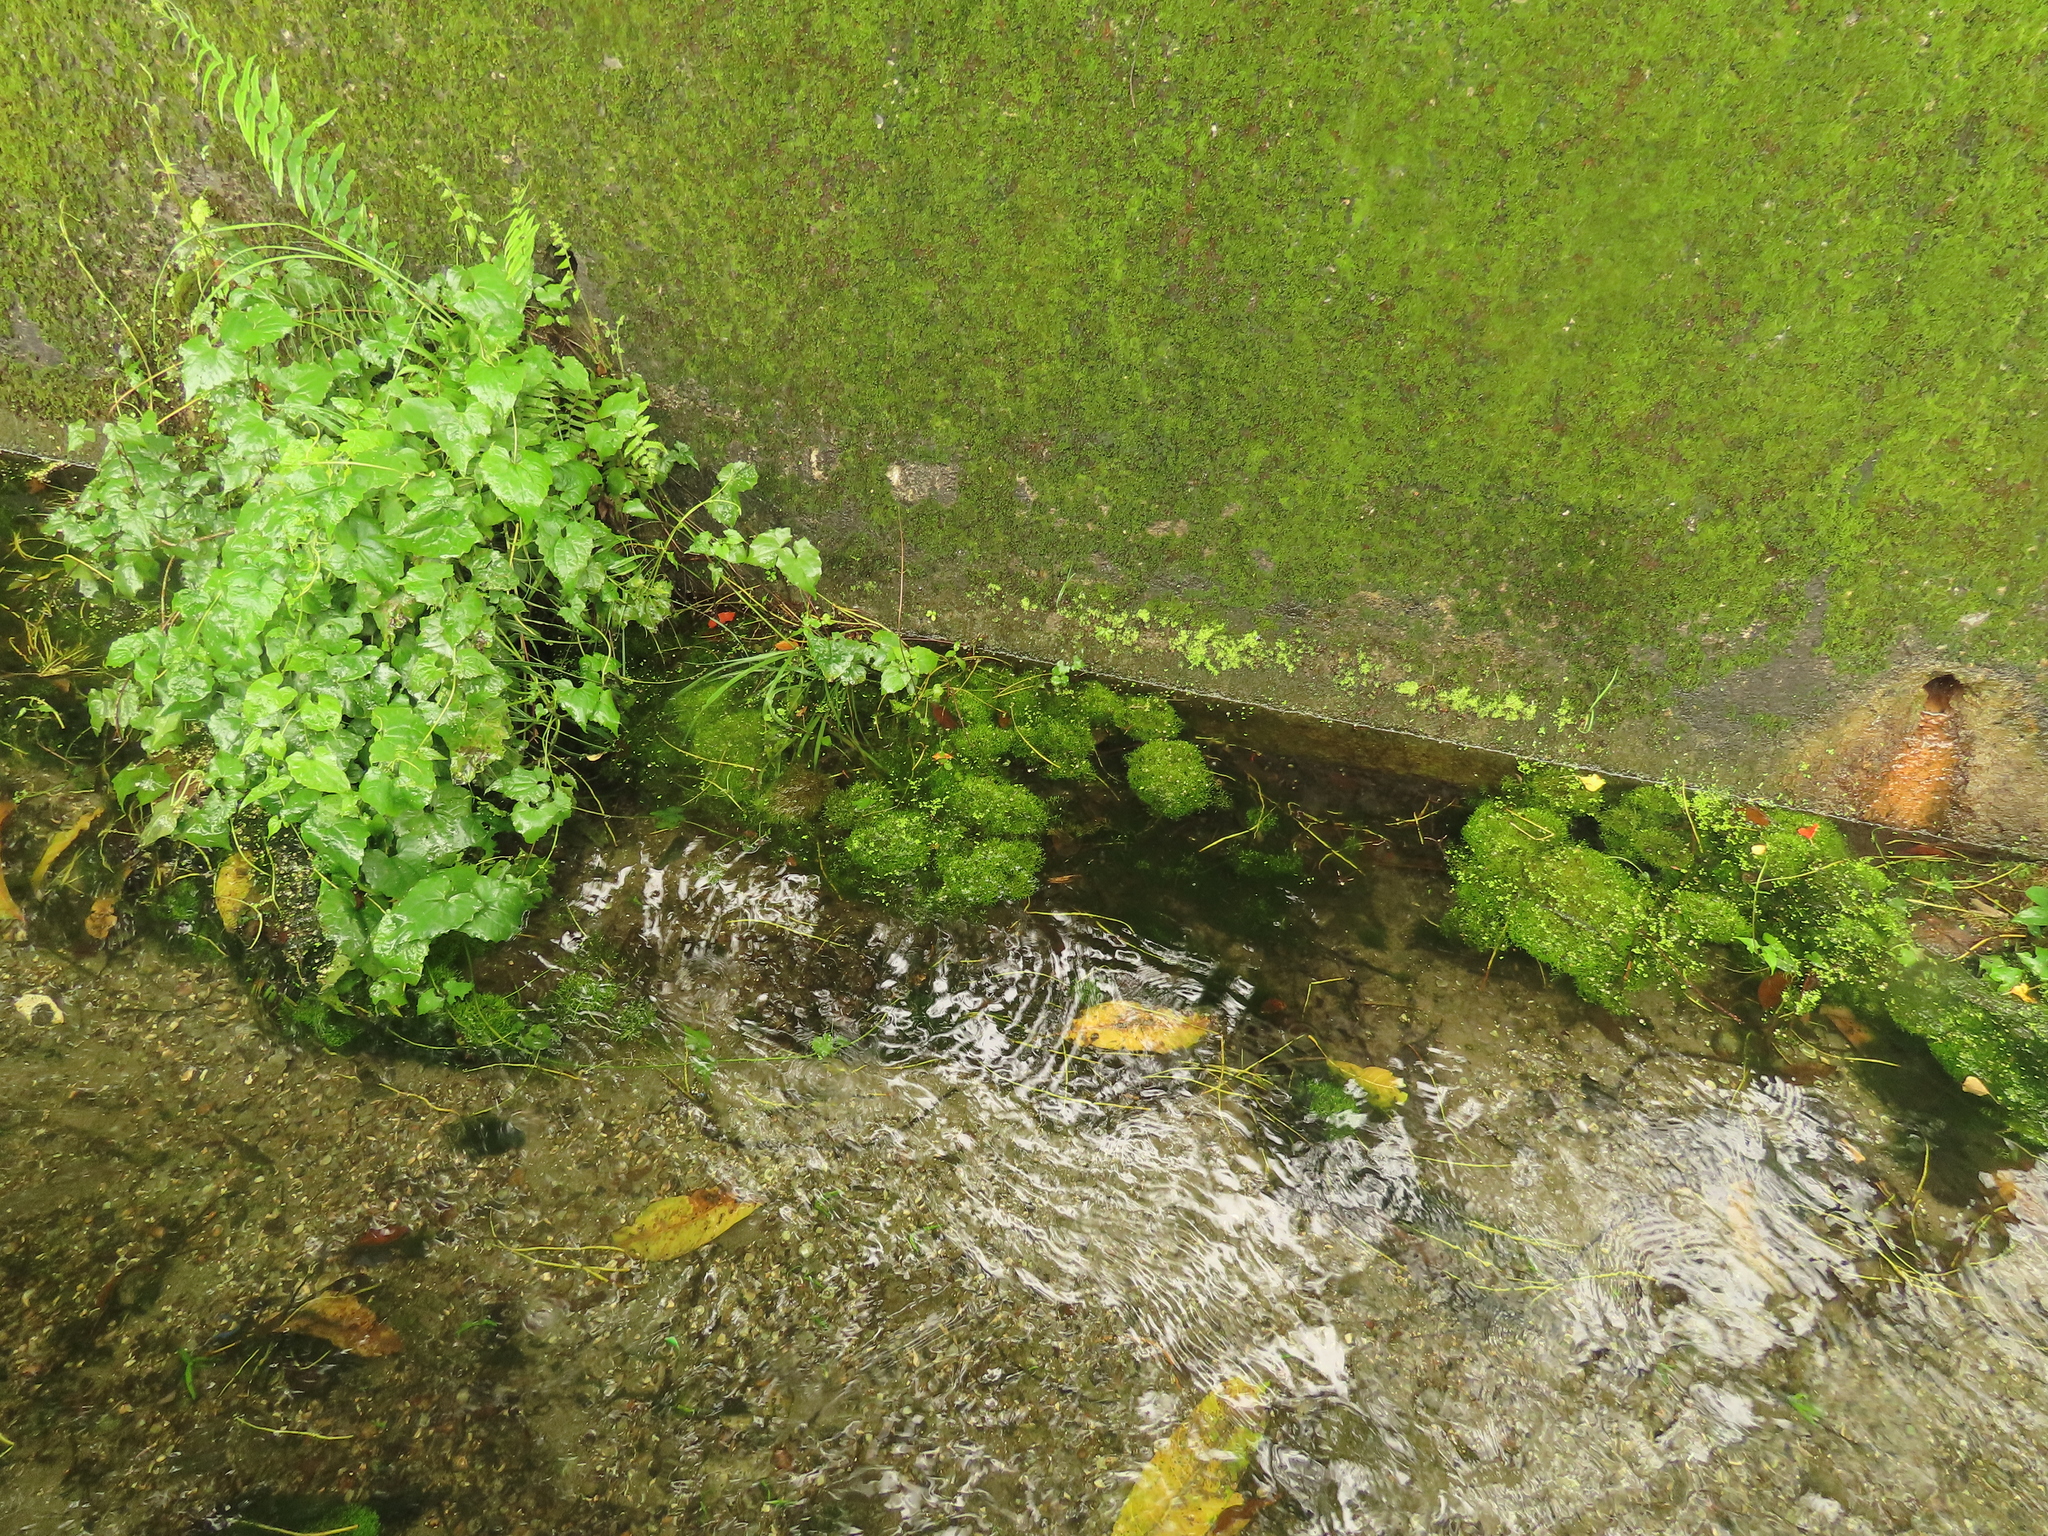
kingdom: Plantae
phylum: Marchantiophyta
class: Marchantiopsida
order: Marchantiales
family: Ricciaceae
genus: Riccia
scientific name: Riccia fluitans
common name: Floating crystalwort
